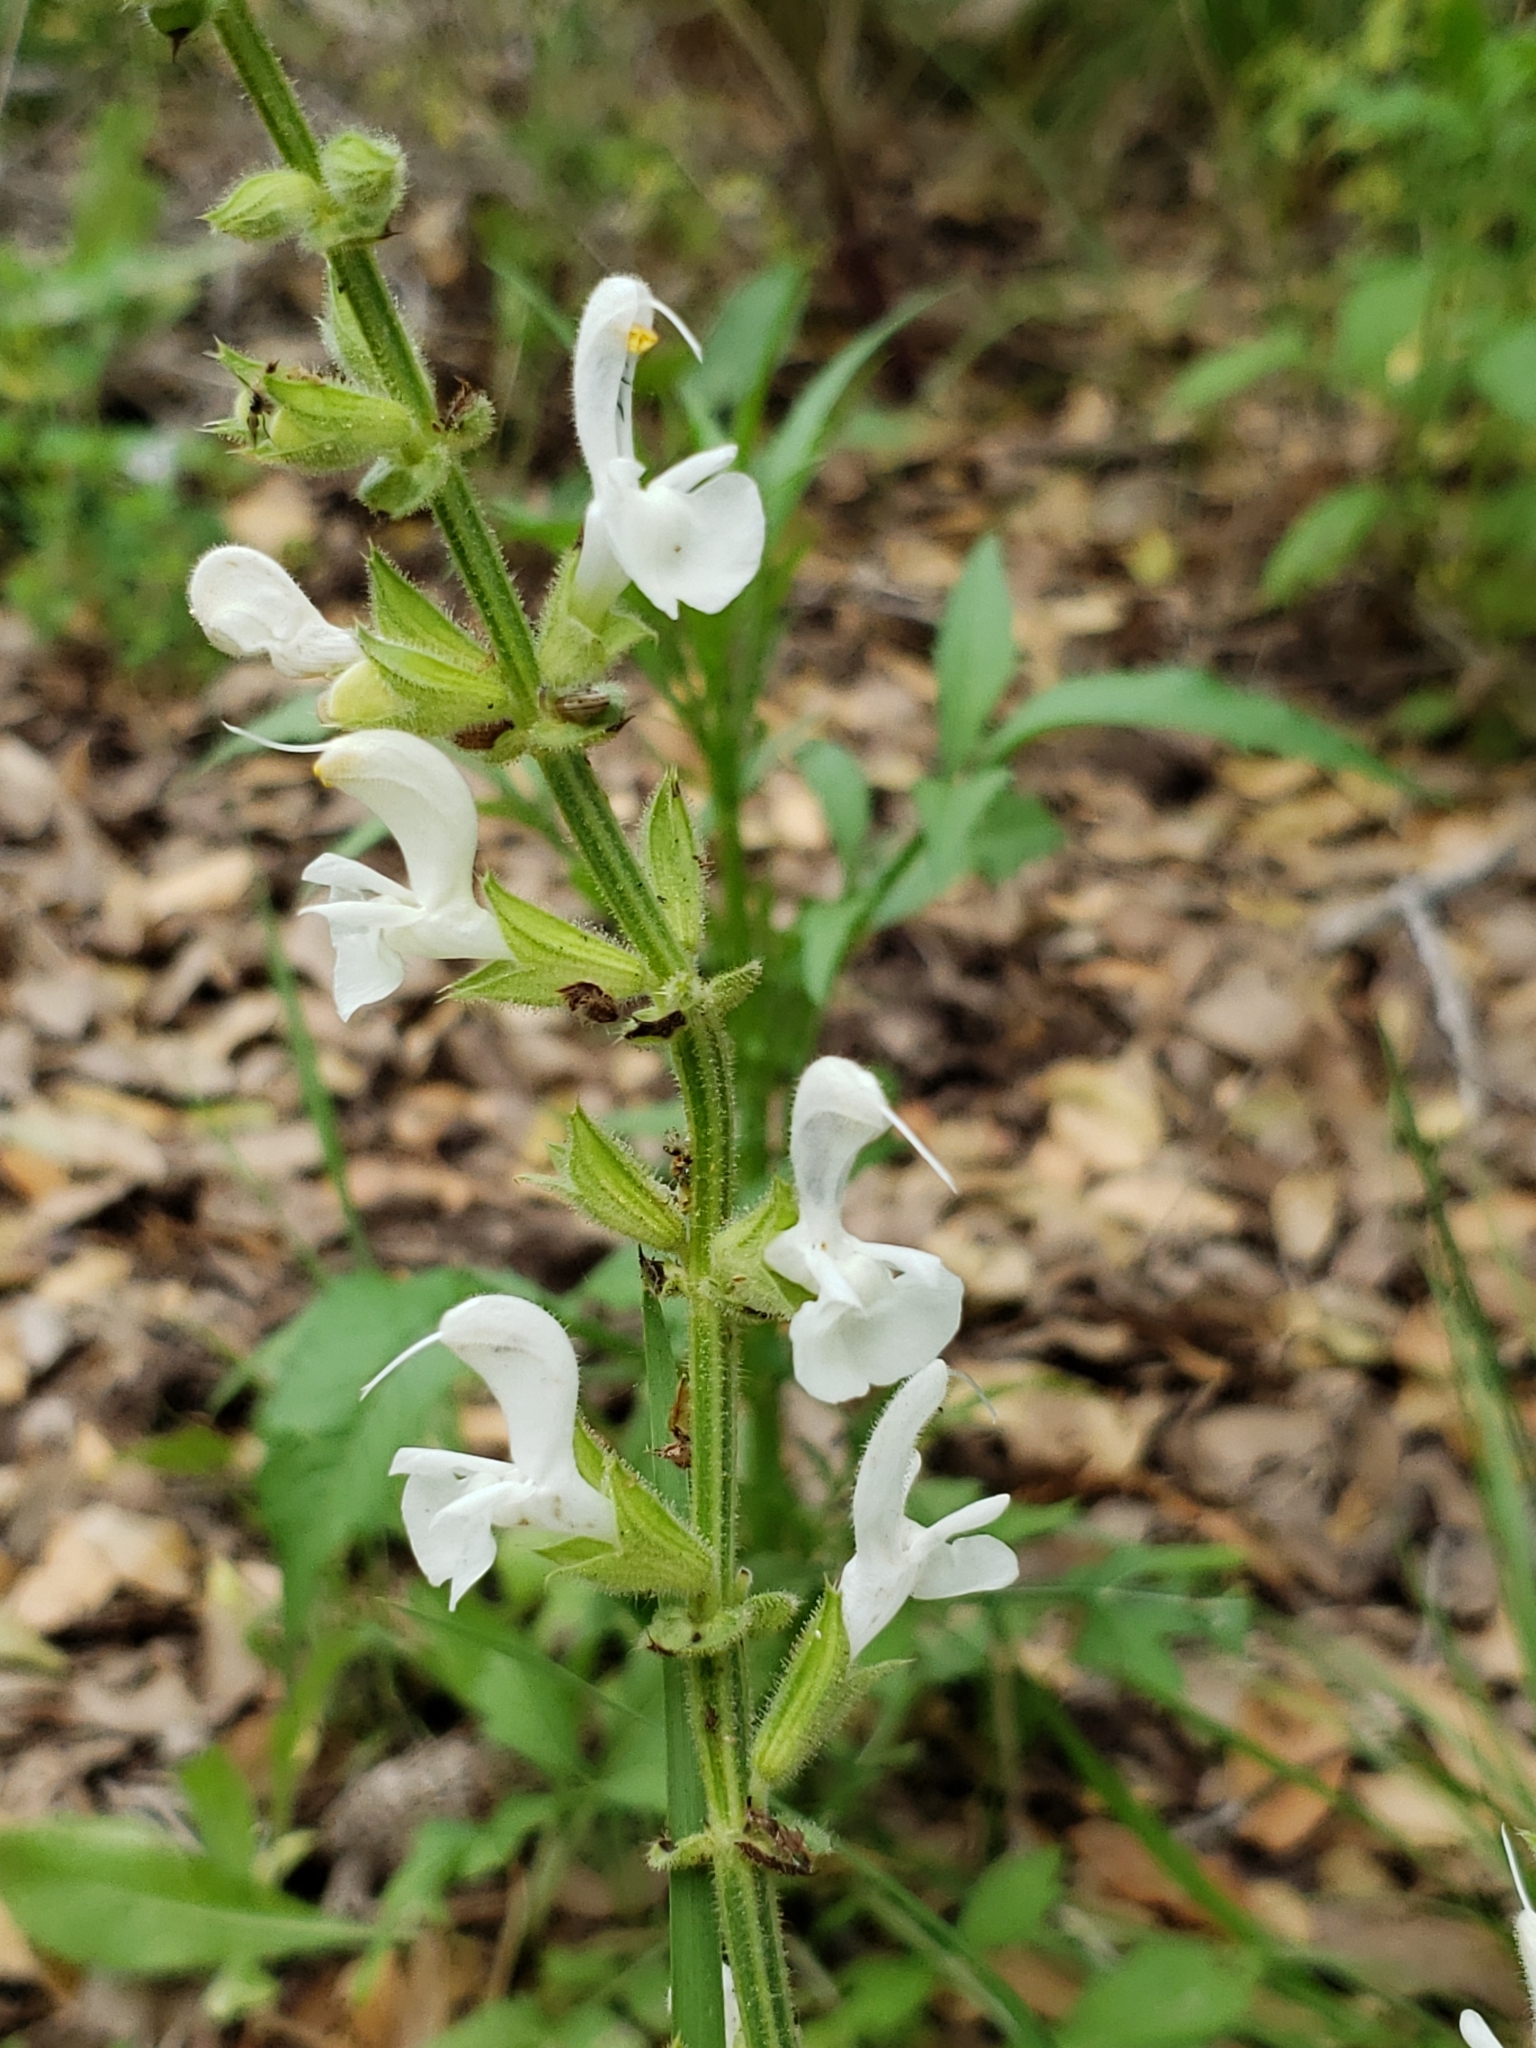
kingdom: Plantae
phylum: Tracheophyta
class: Magnoliopsida
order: Lamiales
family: Lamiaceae
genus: Salvia
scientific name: Salvia hierosolymitana
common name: Jerusalem salvia
